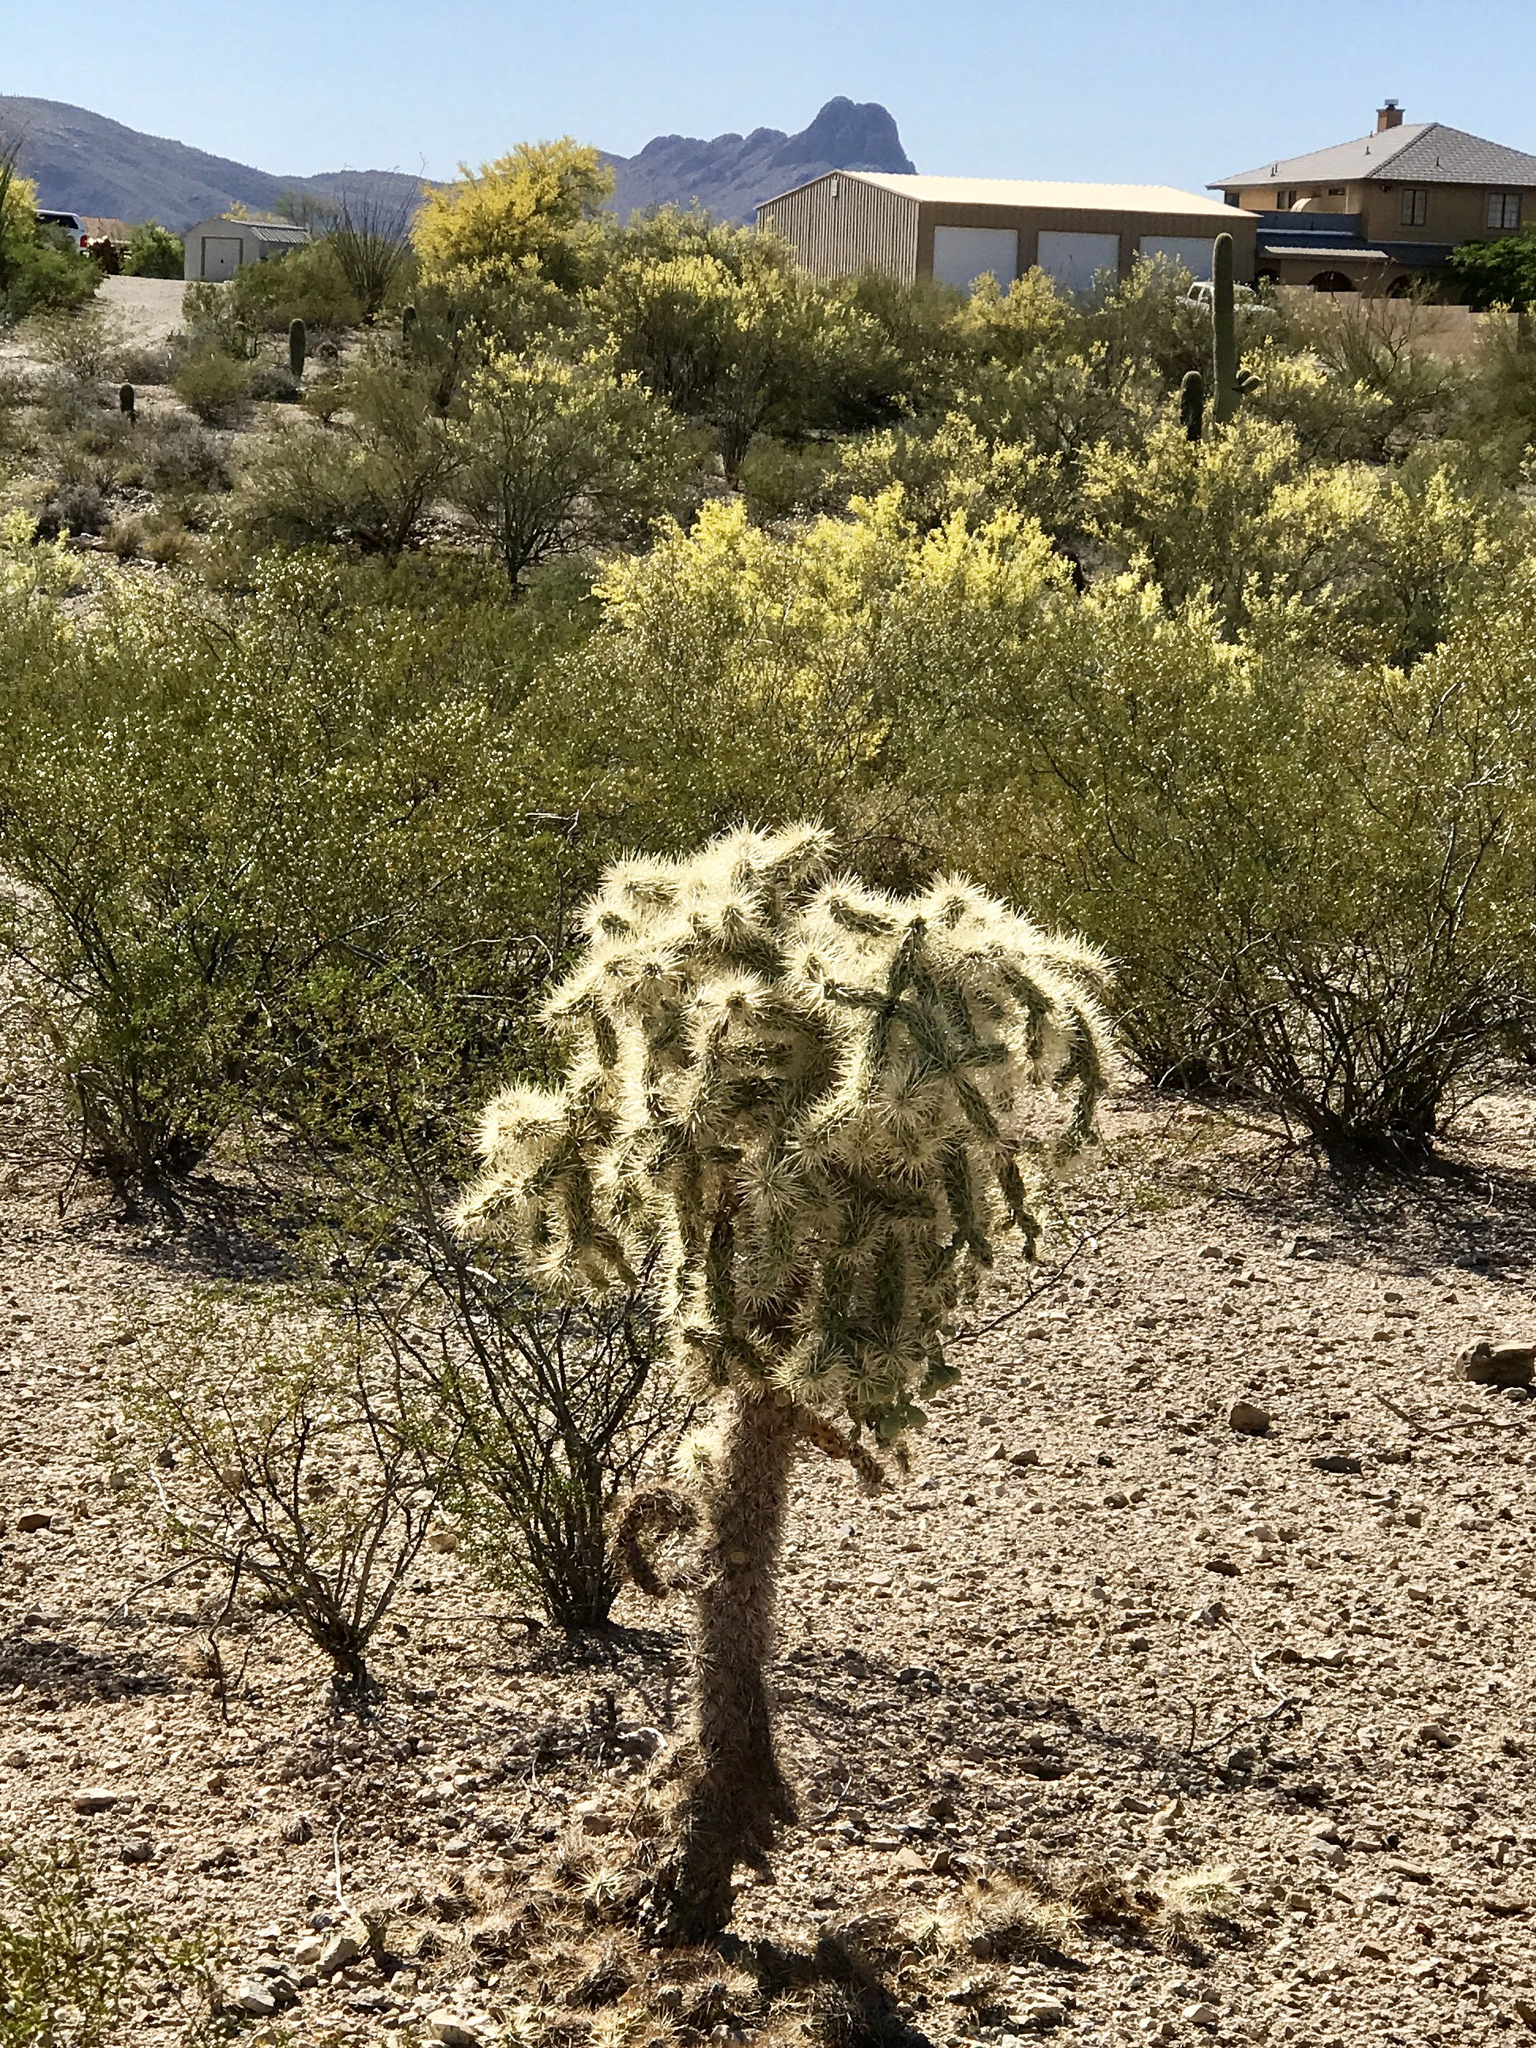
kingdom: Plantae
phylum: Tracheophyta
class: Magnoliopsida
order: Caryophyllales
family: Cactaceae
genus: Cylindropuntia
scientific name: Cylindropuntia fulgida
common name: Jumping cholla
